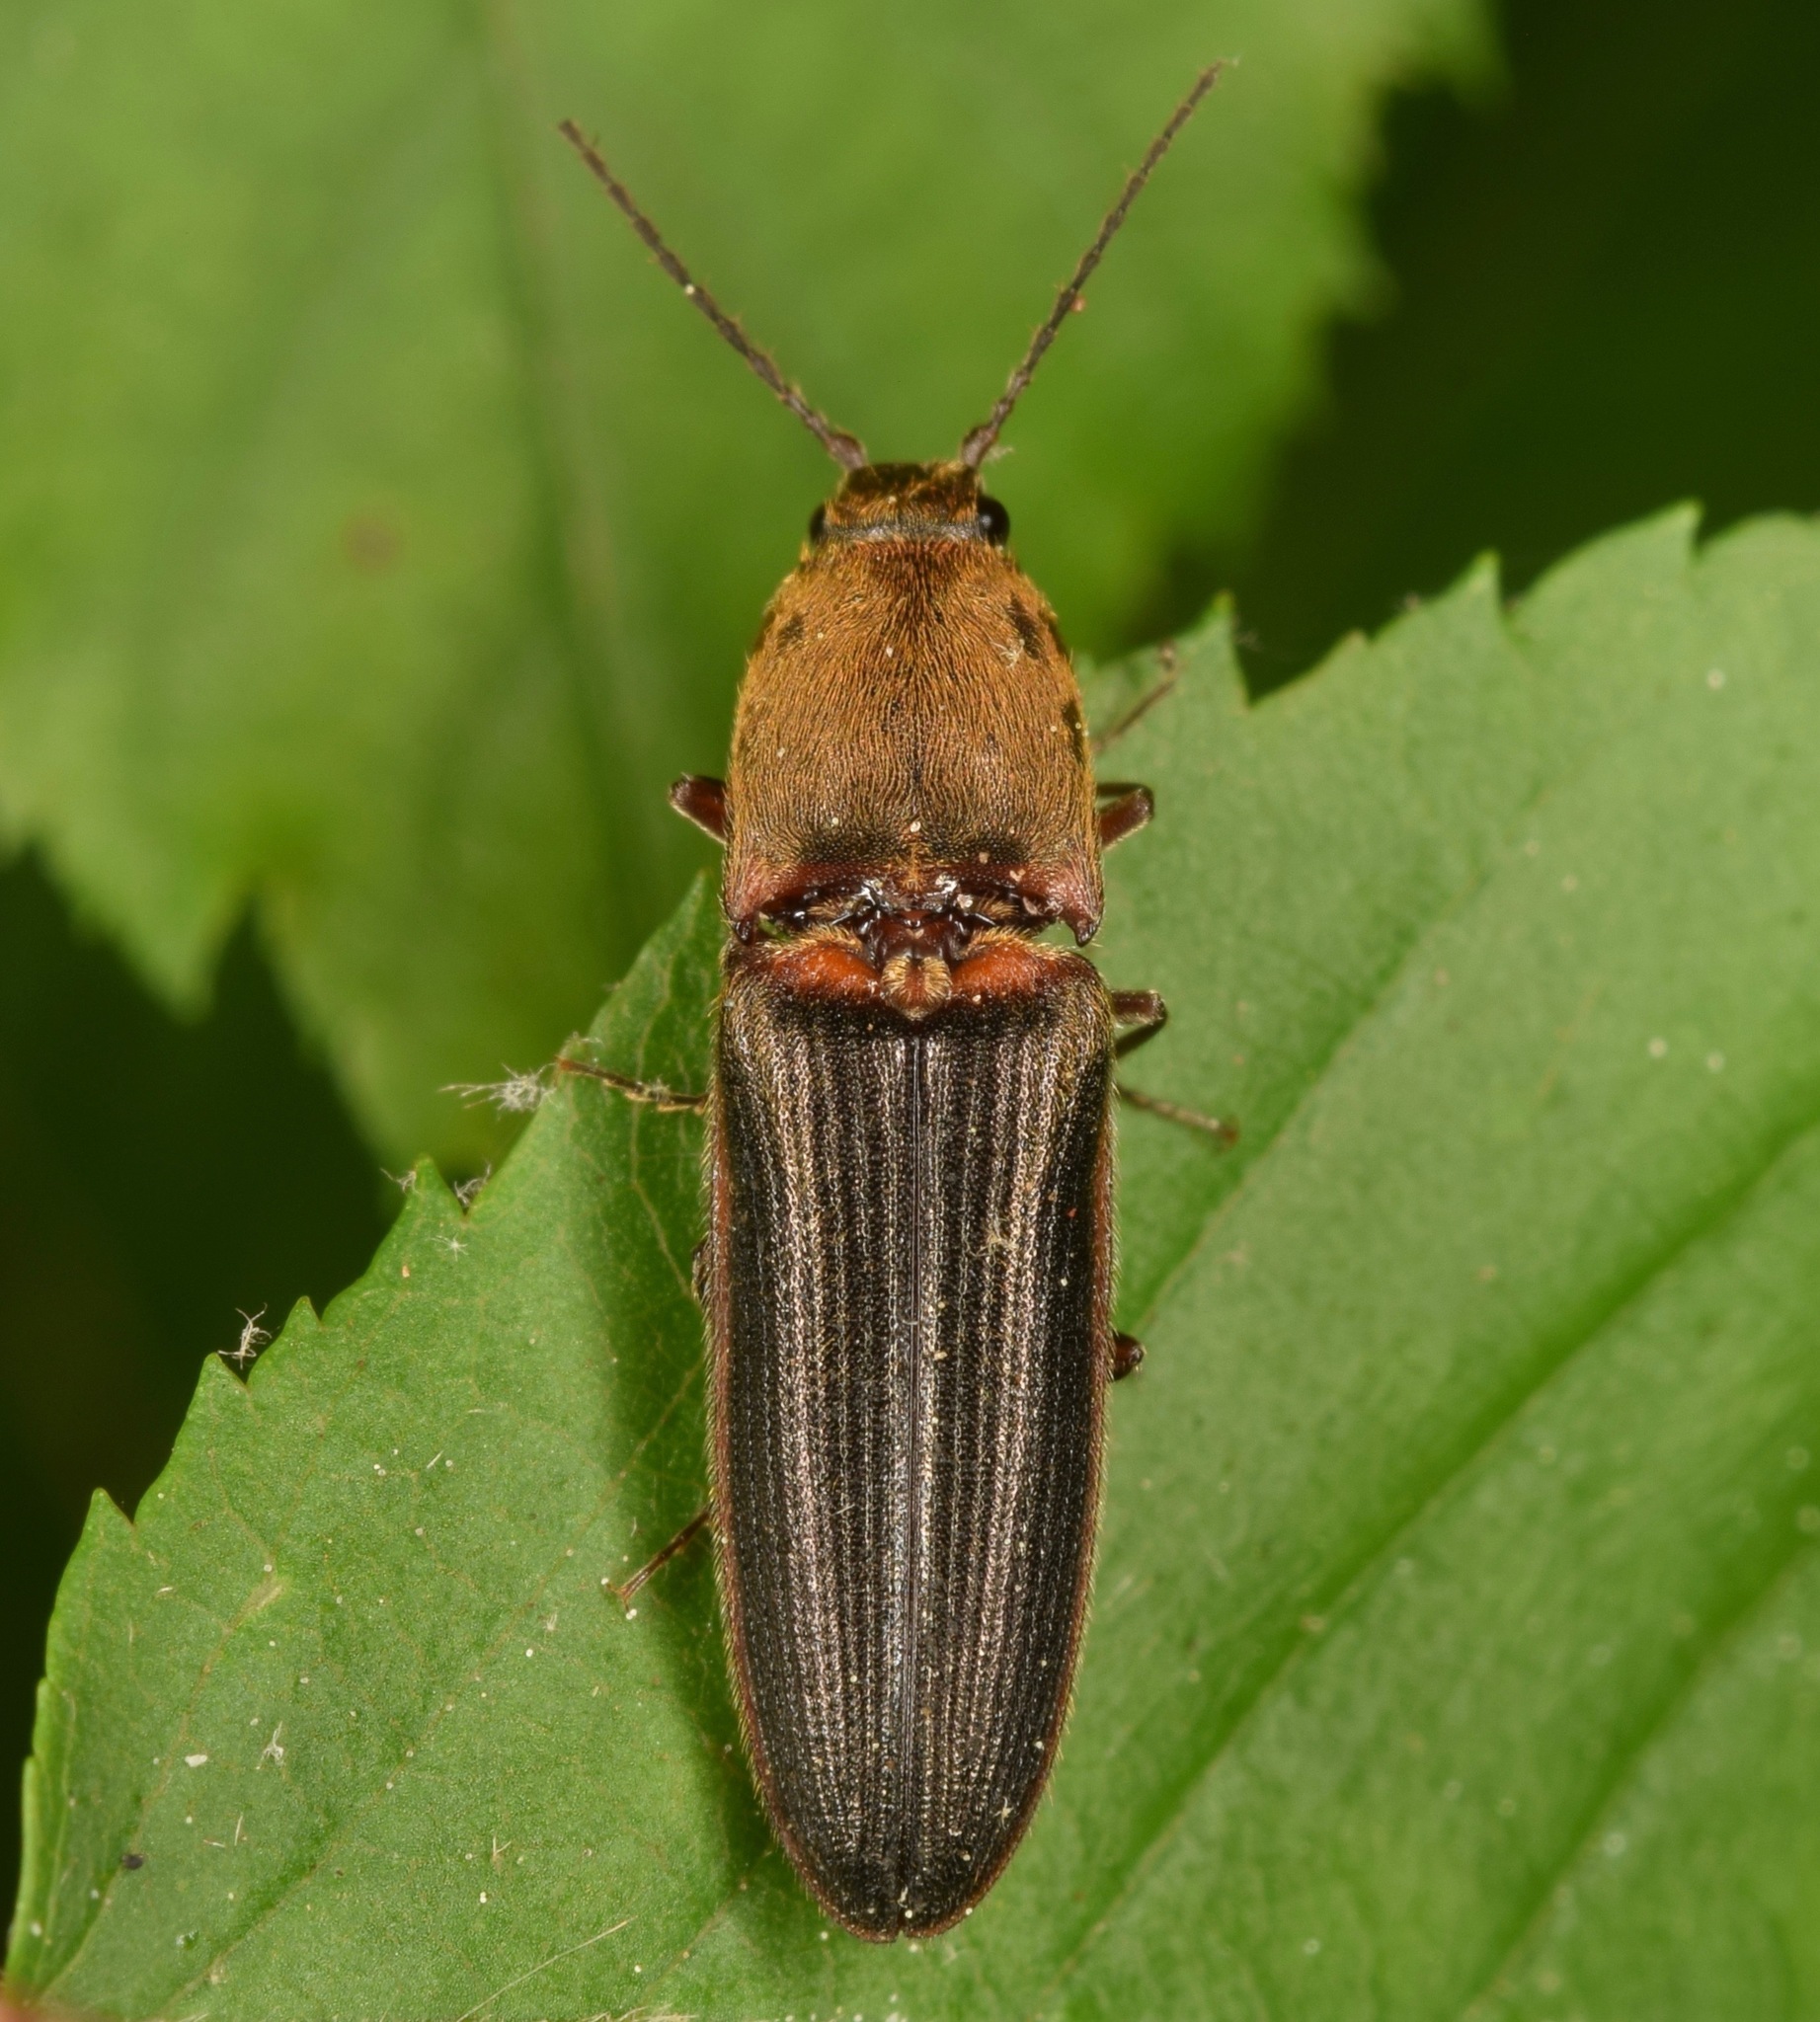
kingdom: Animalia
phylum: Arthropoda
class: Insecta
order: Coleoptera
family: Elateridae
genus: Limonius
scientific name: Limonius auripilis
